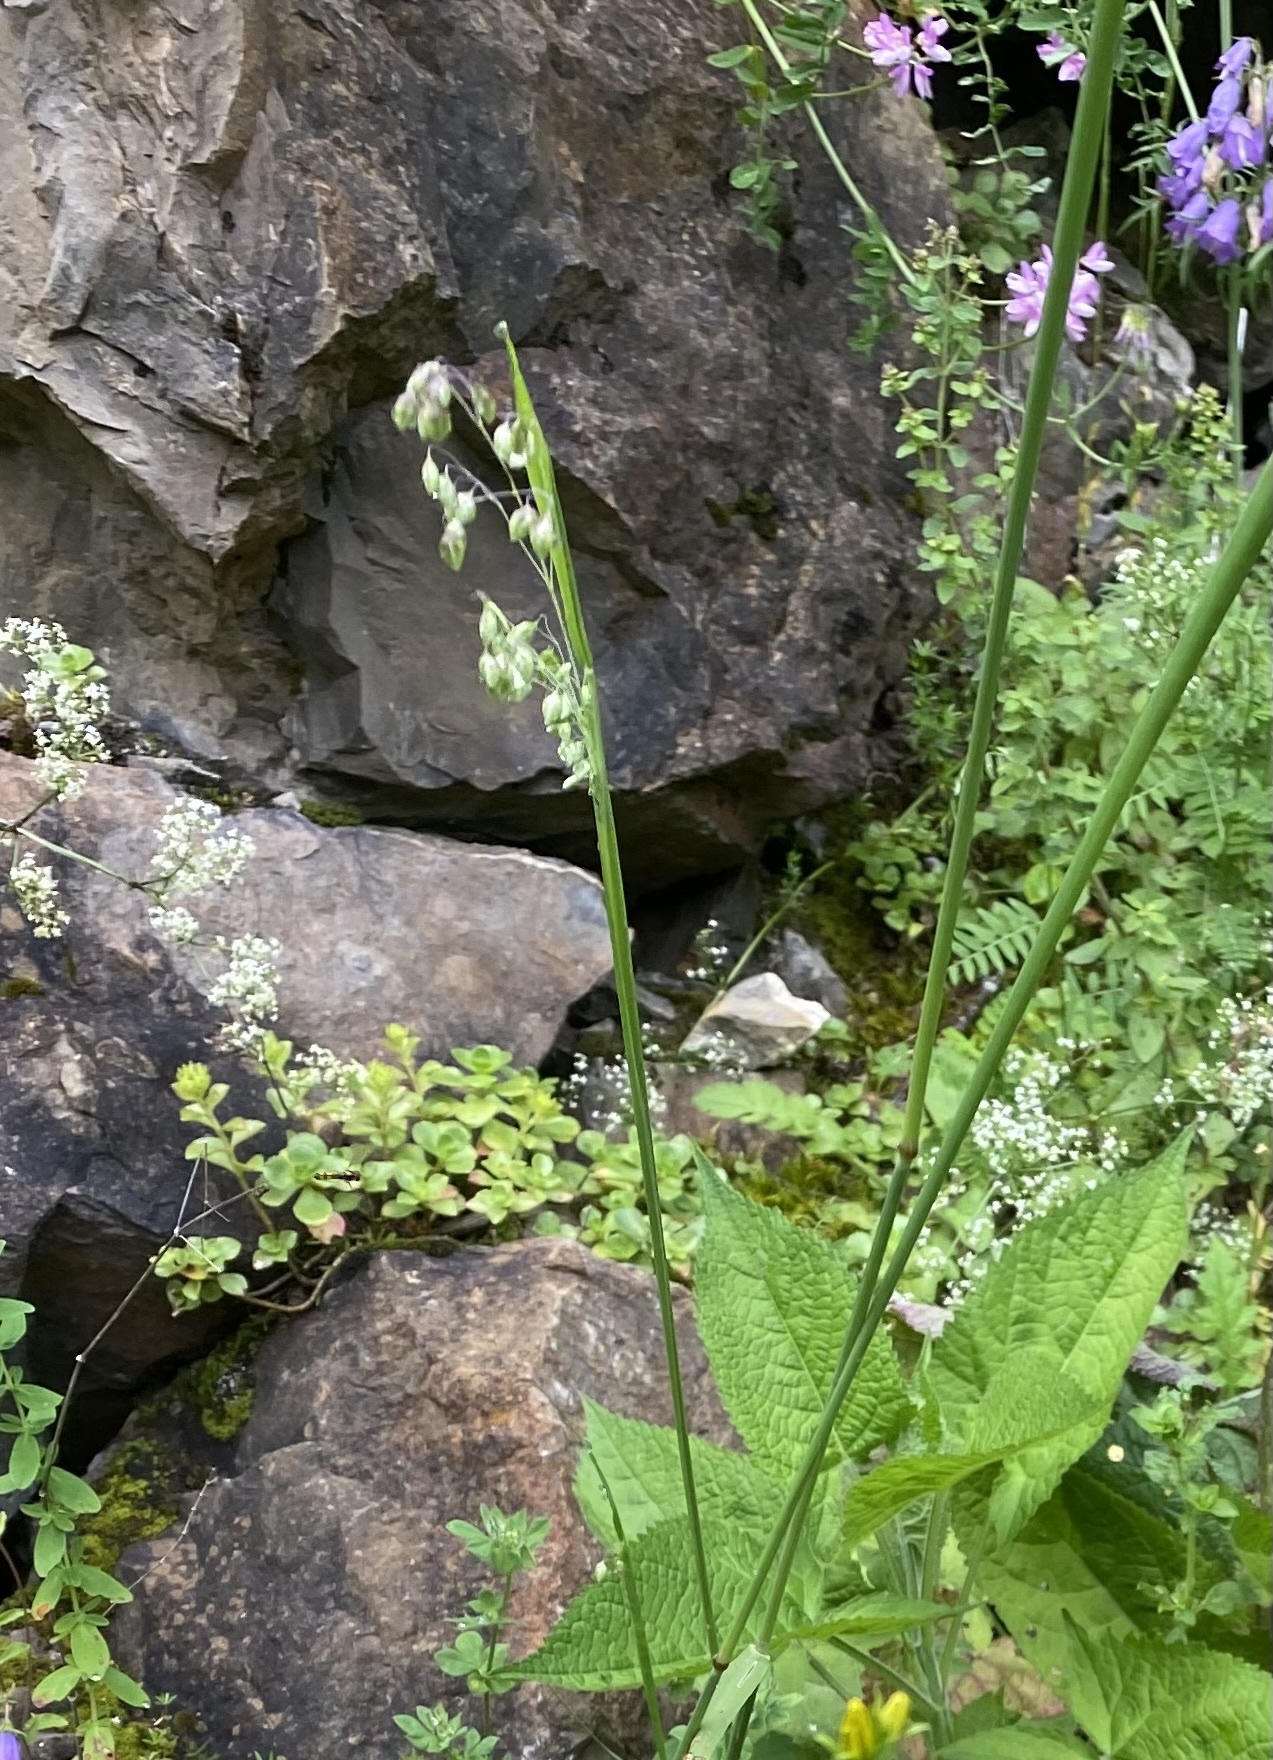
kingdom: Plantae
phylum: Tracheophyta
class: Liliopsida
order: Poales
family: Poaceae
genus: Briza
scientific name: Briza media
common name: Quaking grass
